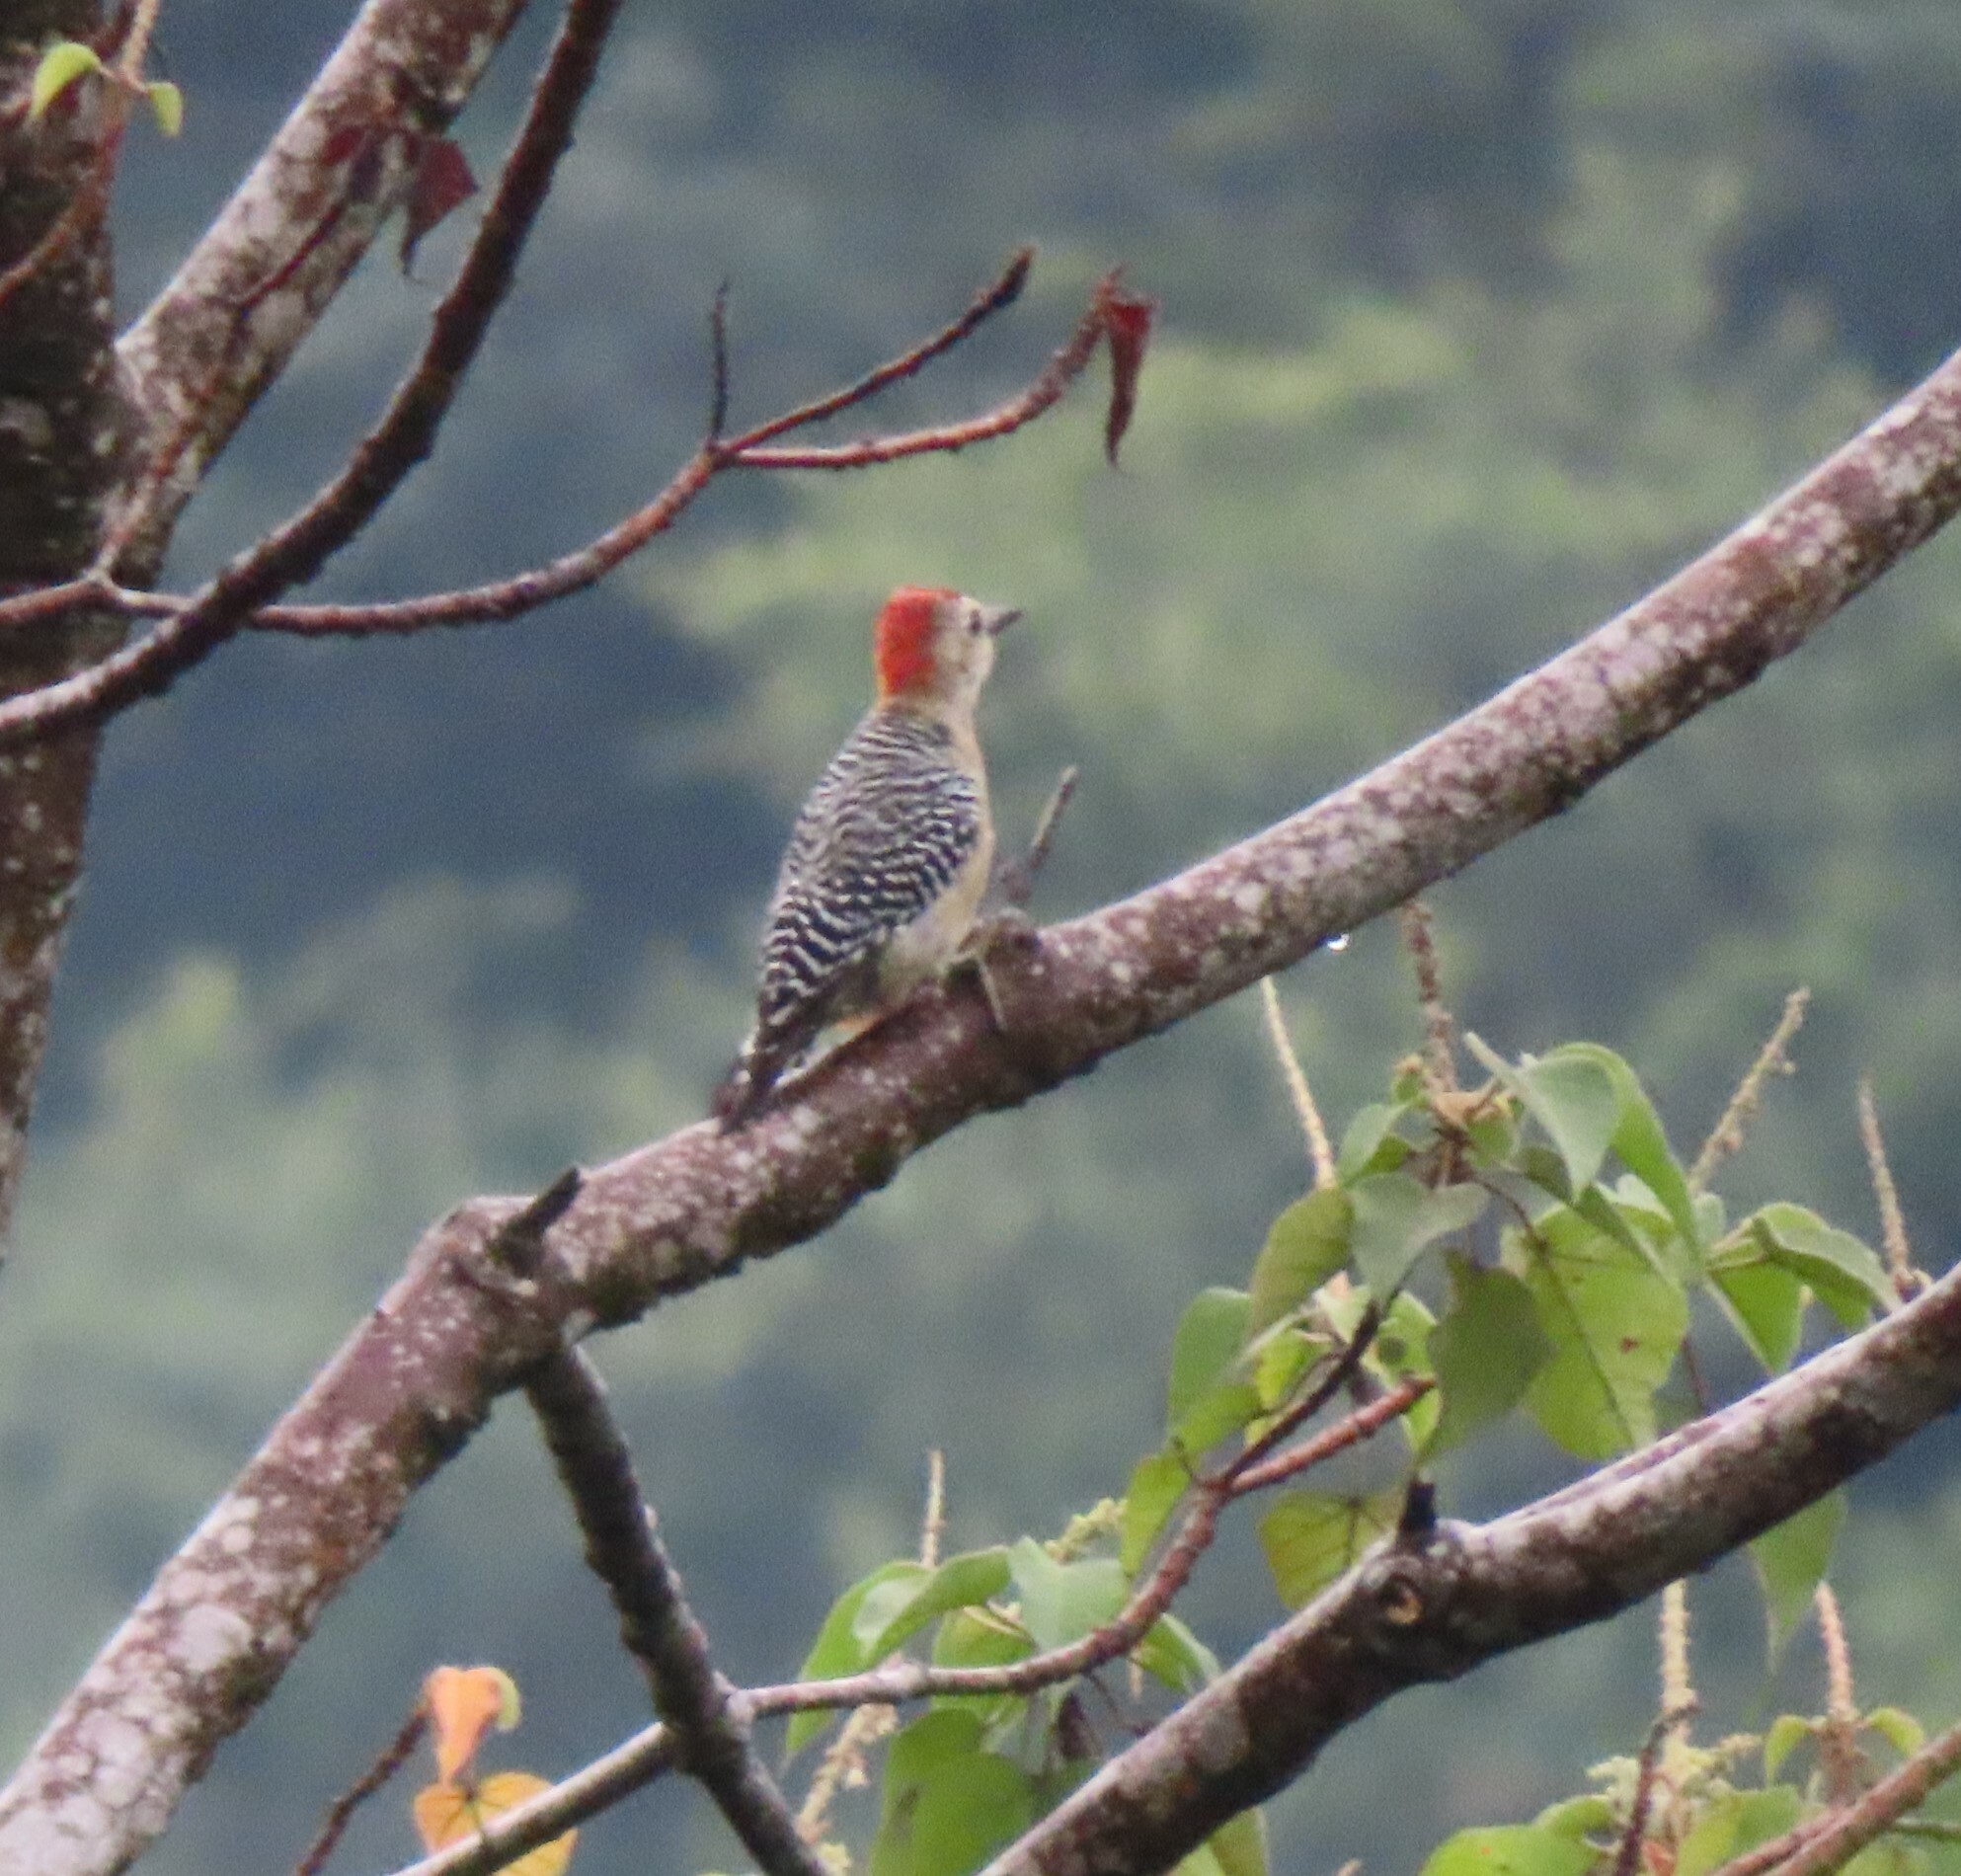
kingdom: Animalia
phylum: Chordata
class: Aves
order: Piciformes
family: Picidae
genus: Melanerpes
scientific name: Melanerpes rubricapillus
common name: Red-crowned woodpecker
